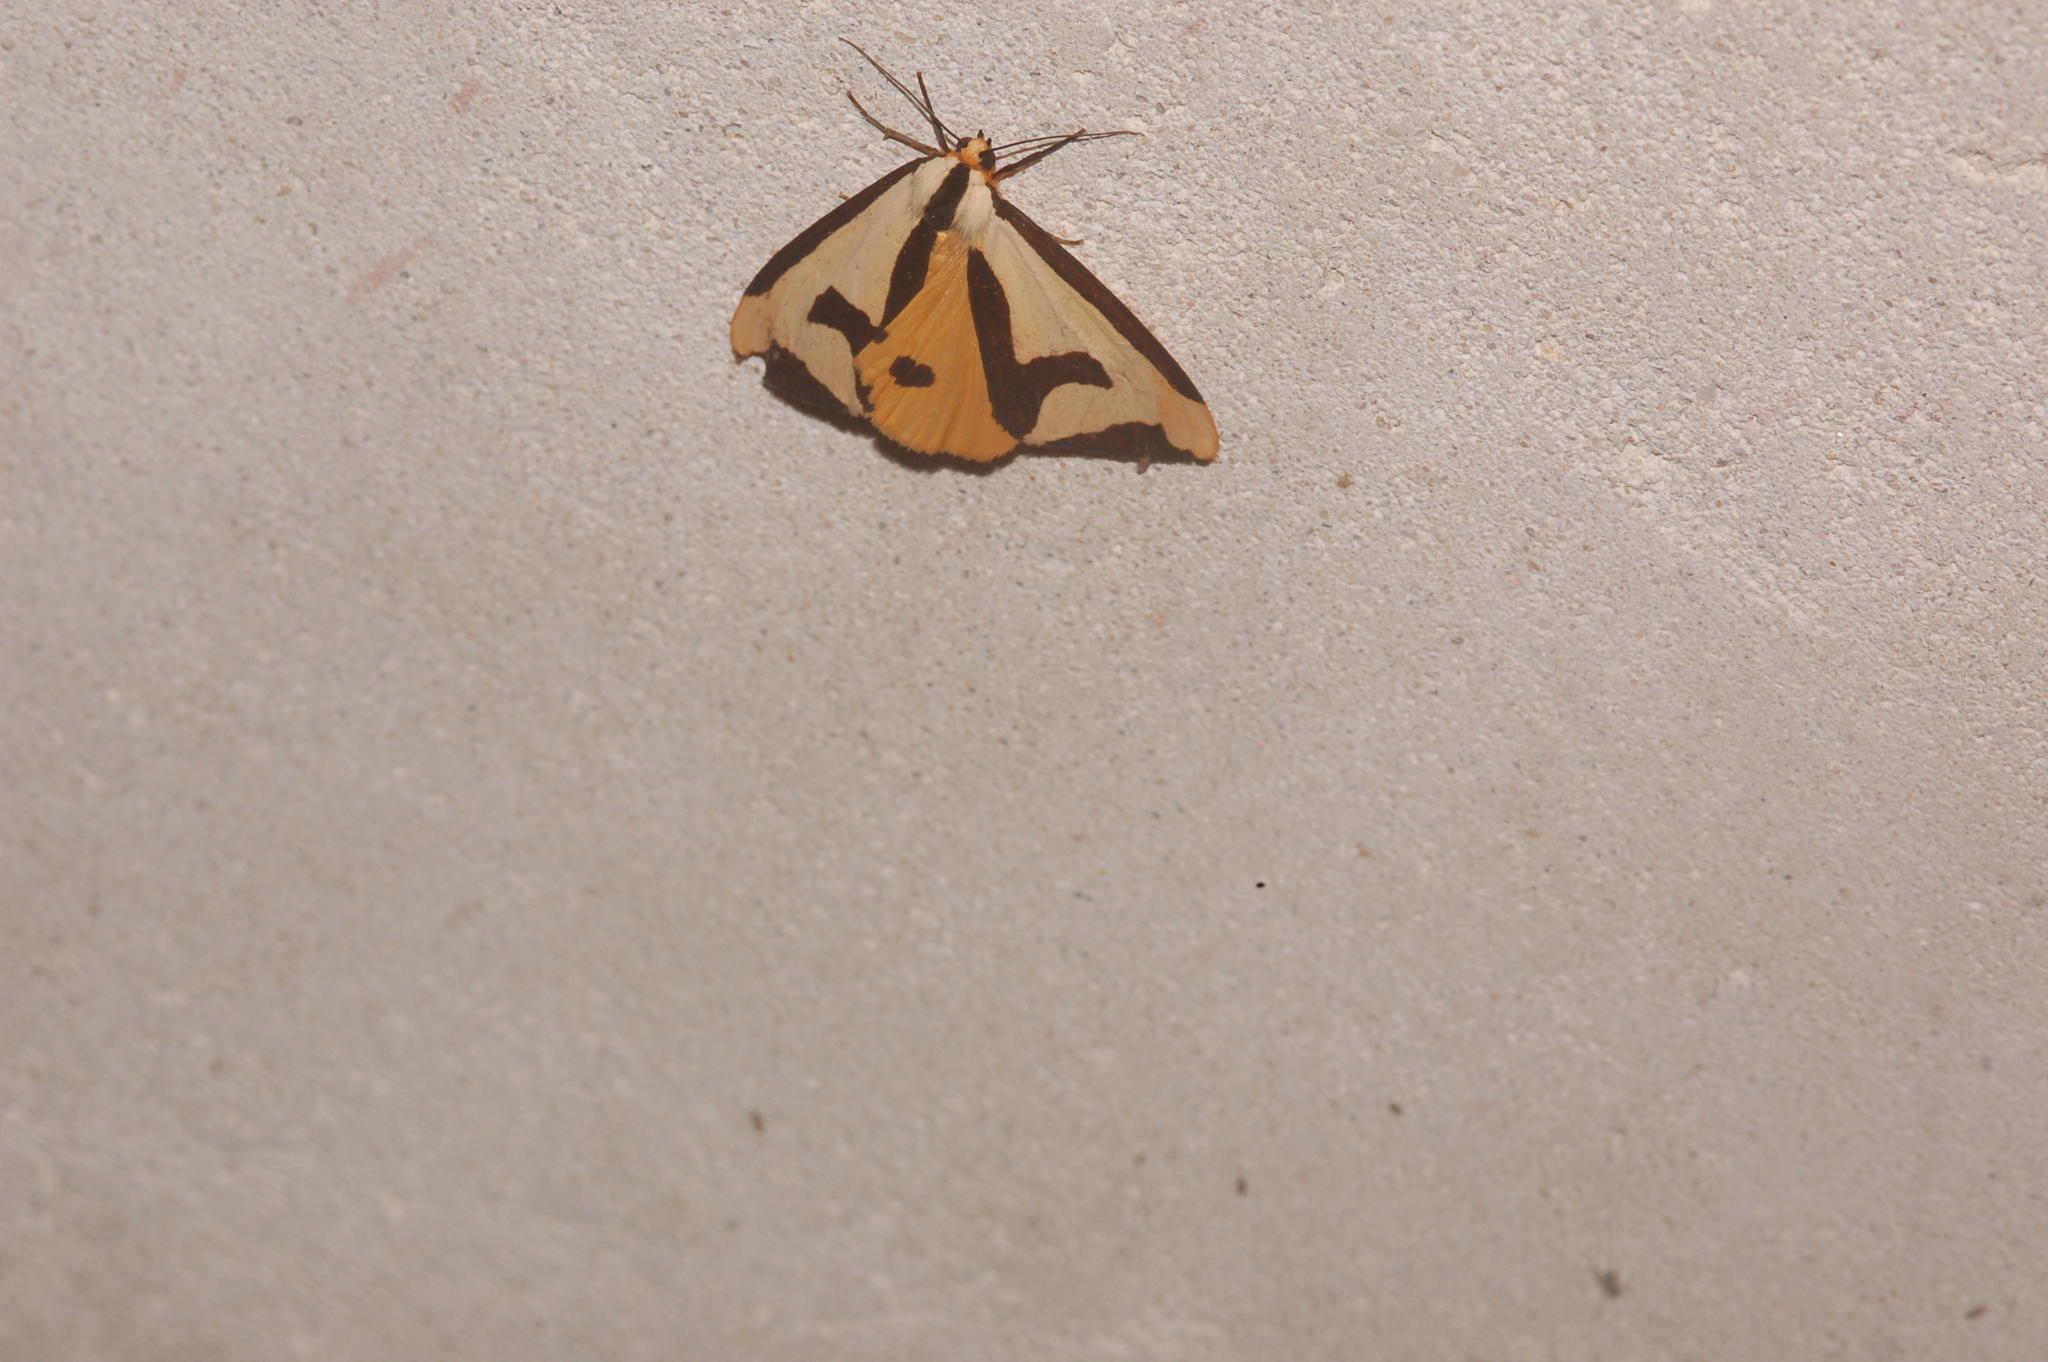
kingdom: Animalia
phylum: Arthropoda
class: Insecta
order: Lepidoptera
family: Erebidae
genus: Haploa
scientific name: Haploa clymene
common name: Clymene moth
